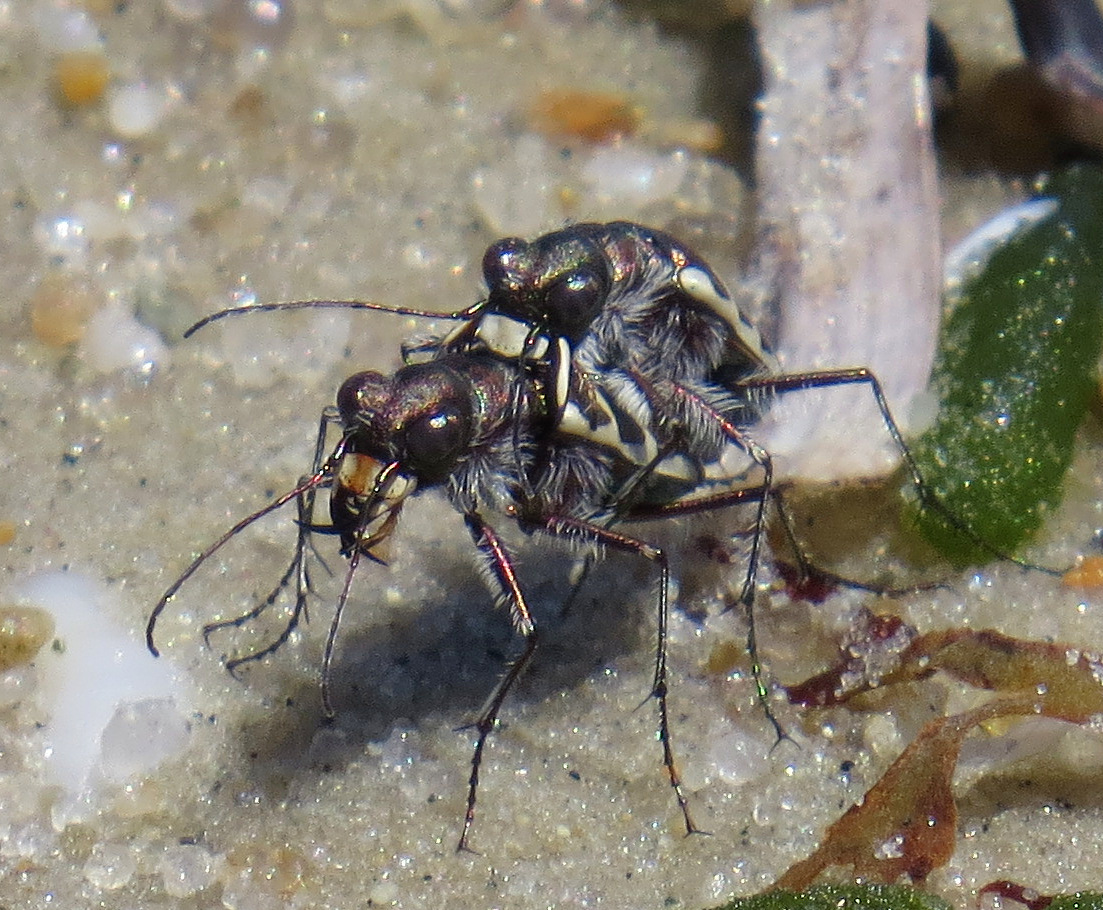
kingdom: Animalia
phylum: Arthropoda
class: Insecta
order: Coleoptera
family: Carabidae
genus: Cicindela
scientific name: Cicindela hirticollis
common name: Hairy-necked tiger beetle
